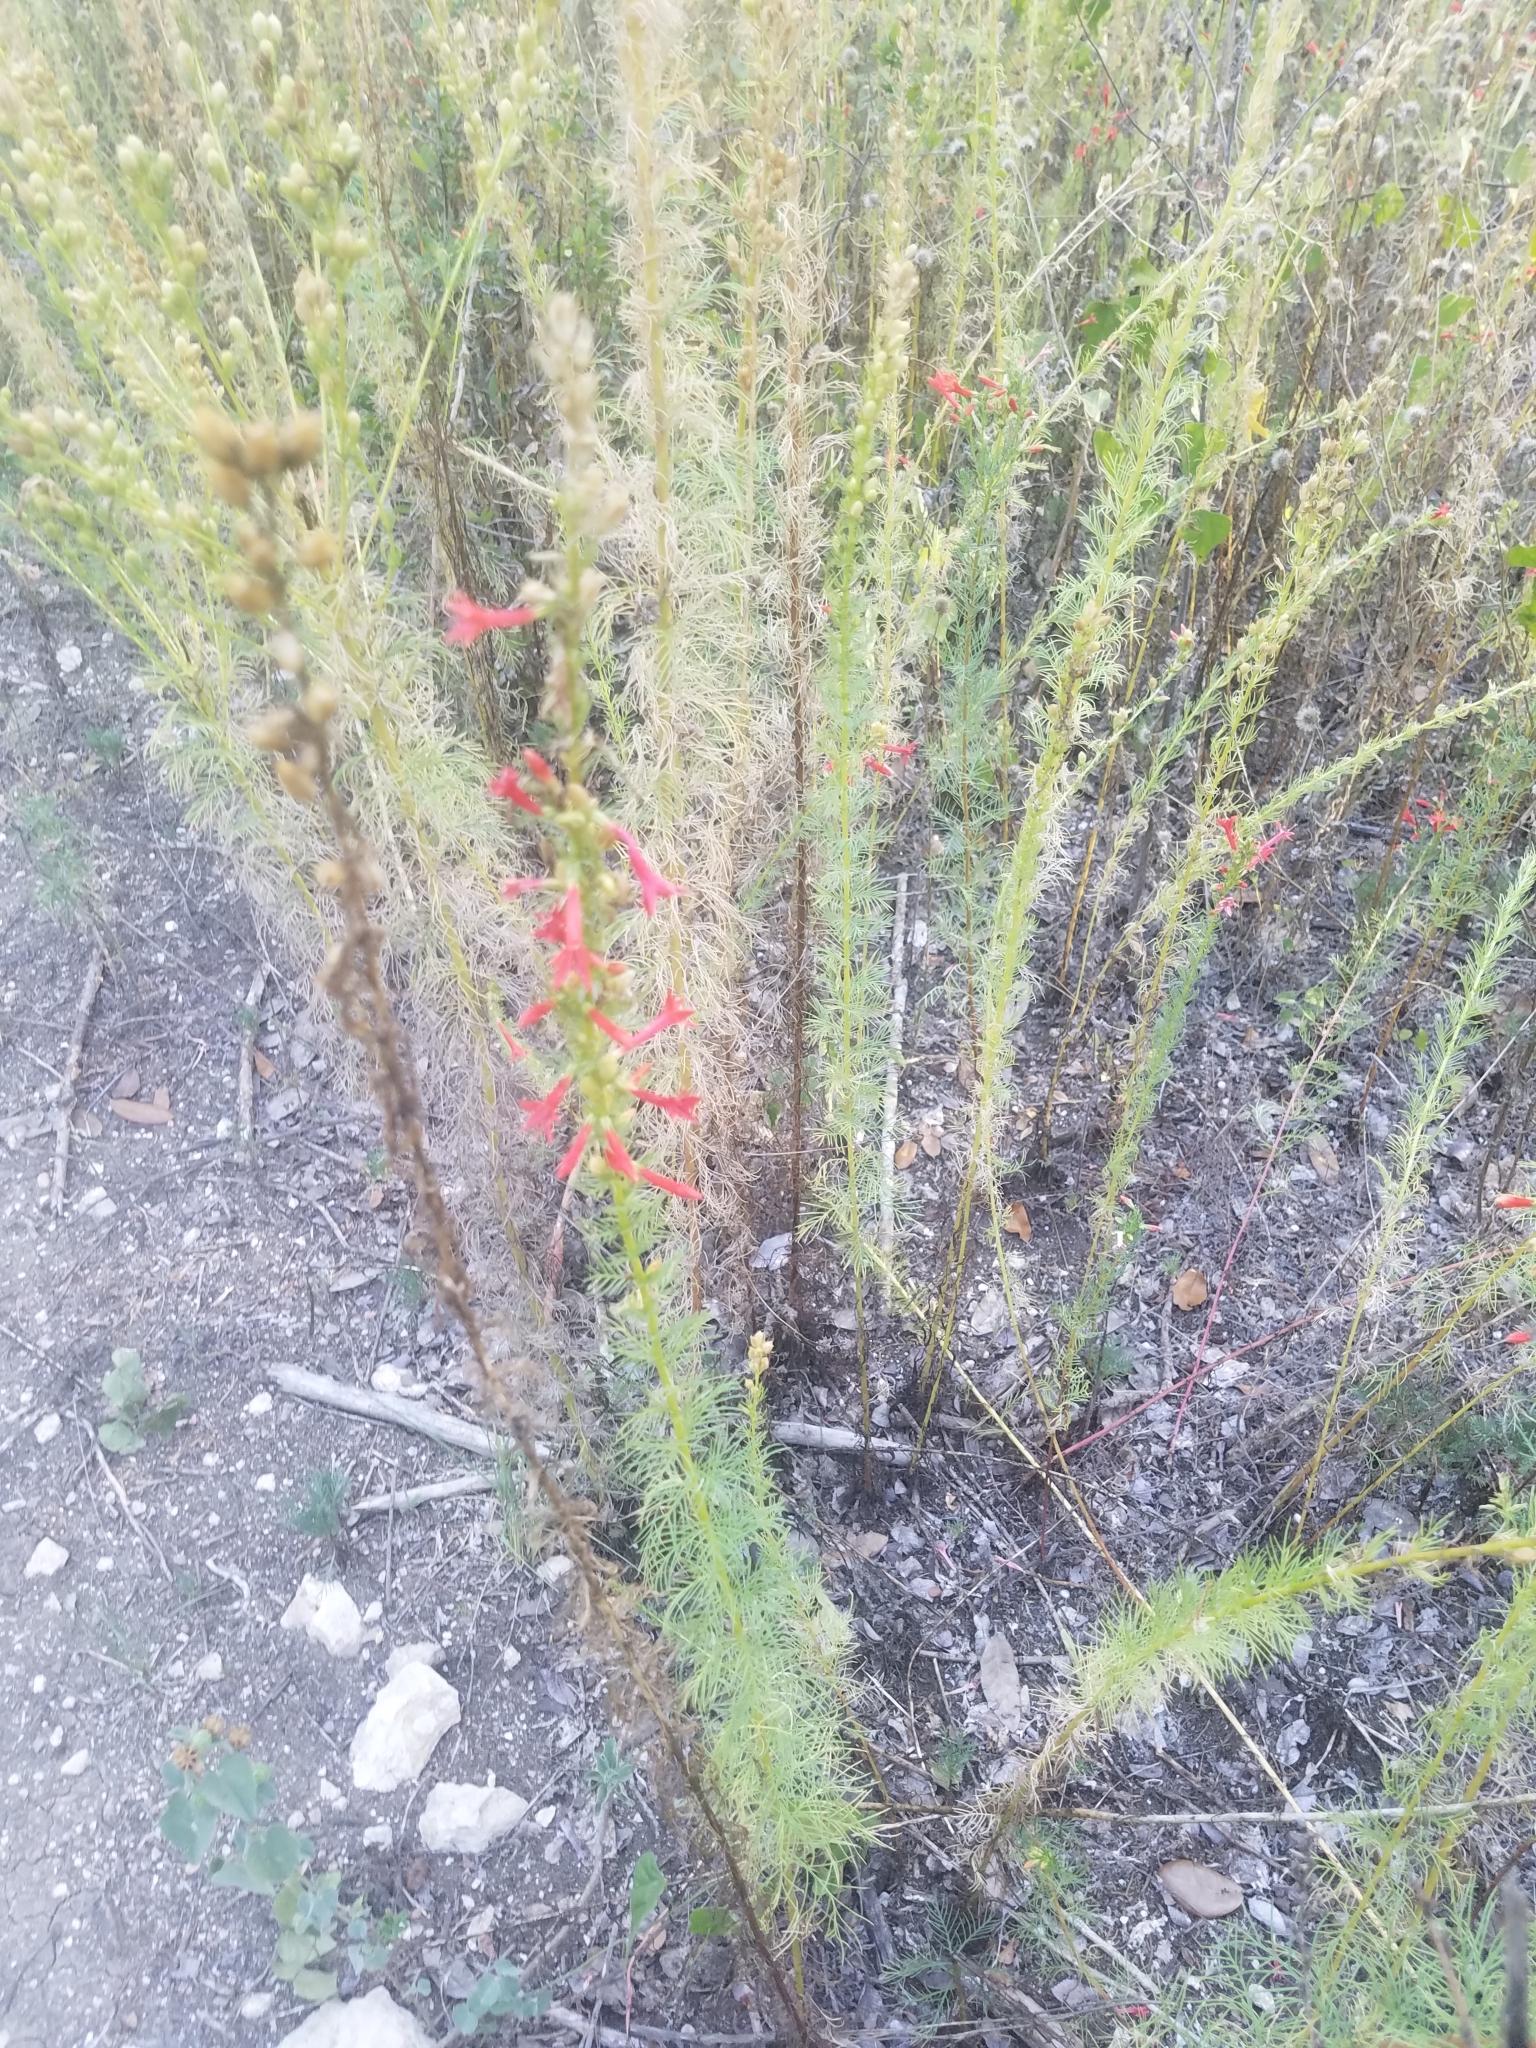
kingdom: Plantae
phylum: Tracheophyta
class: Magnoliopsida
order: Ericales
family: Polemoniaceae
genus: Ipomopsis
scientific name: Ipomopsis rubra
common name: Skyrocket
